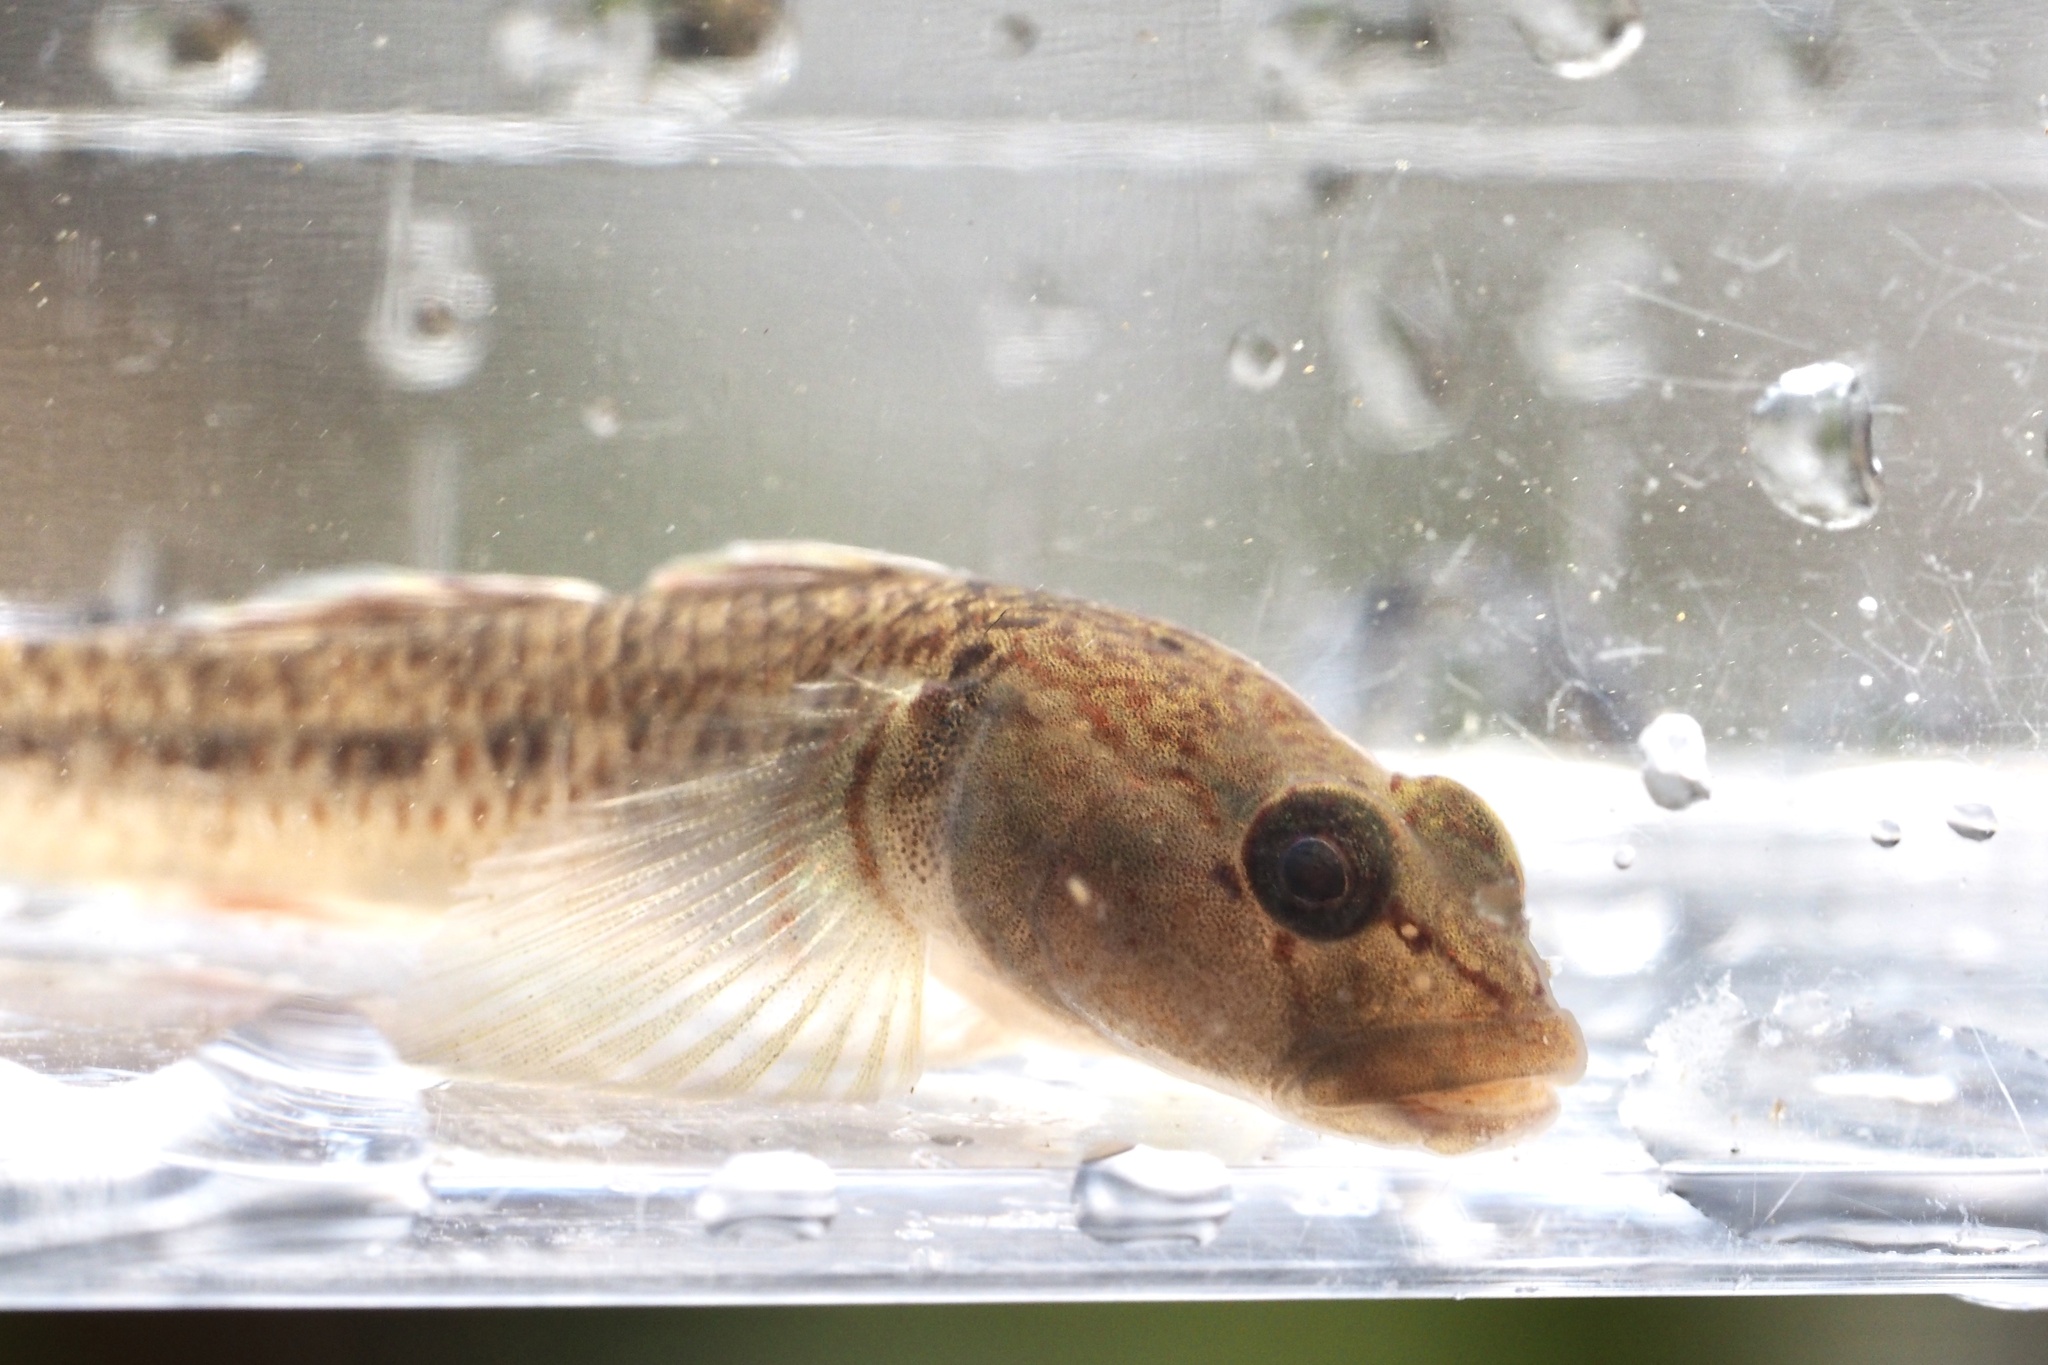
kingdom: Animalia
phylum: Chordata
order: Perciformes
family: Gobiidae
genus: Rhinogobius
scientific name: Rhinogobius flumineus
